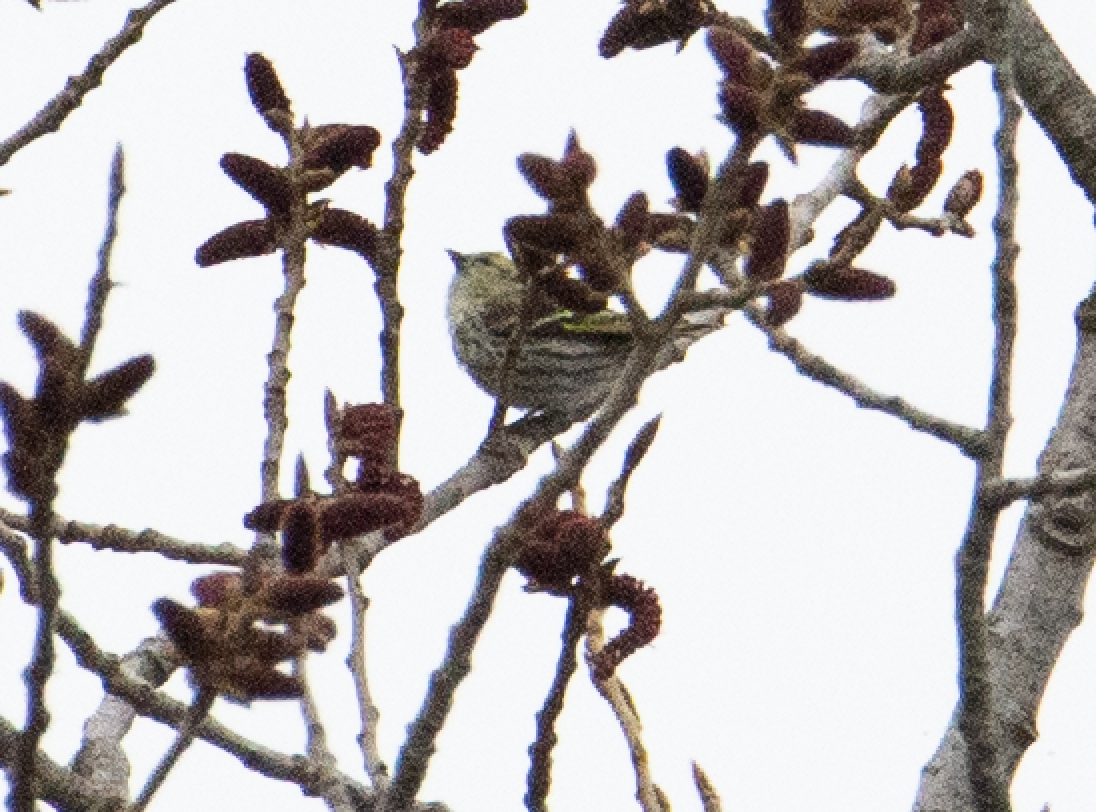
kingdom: Animalia
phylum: Chordata
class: Aves
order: Passeriformes
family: Fringillidae
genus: Spinus
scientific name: Spinus spinus
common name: Eurasian siskin
